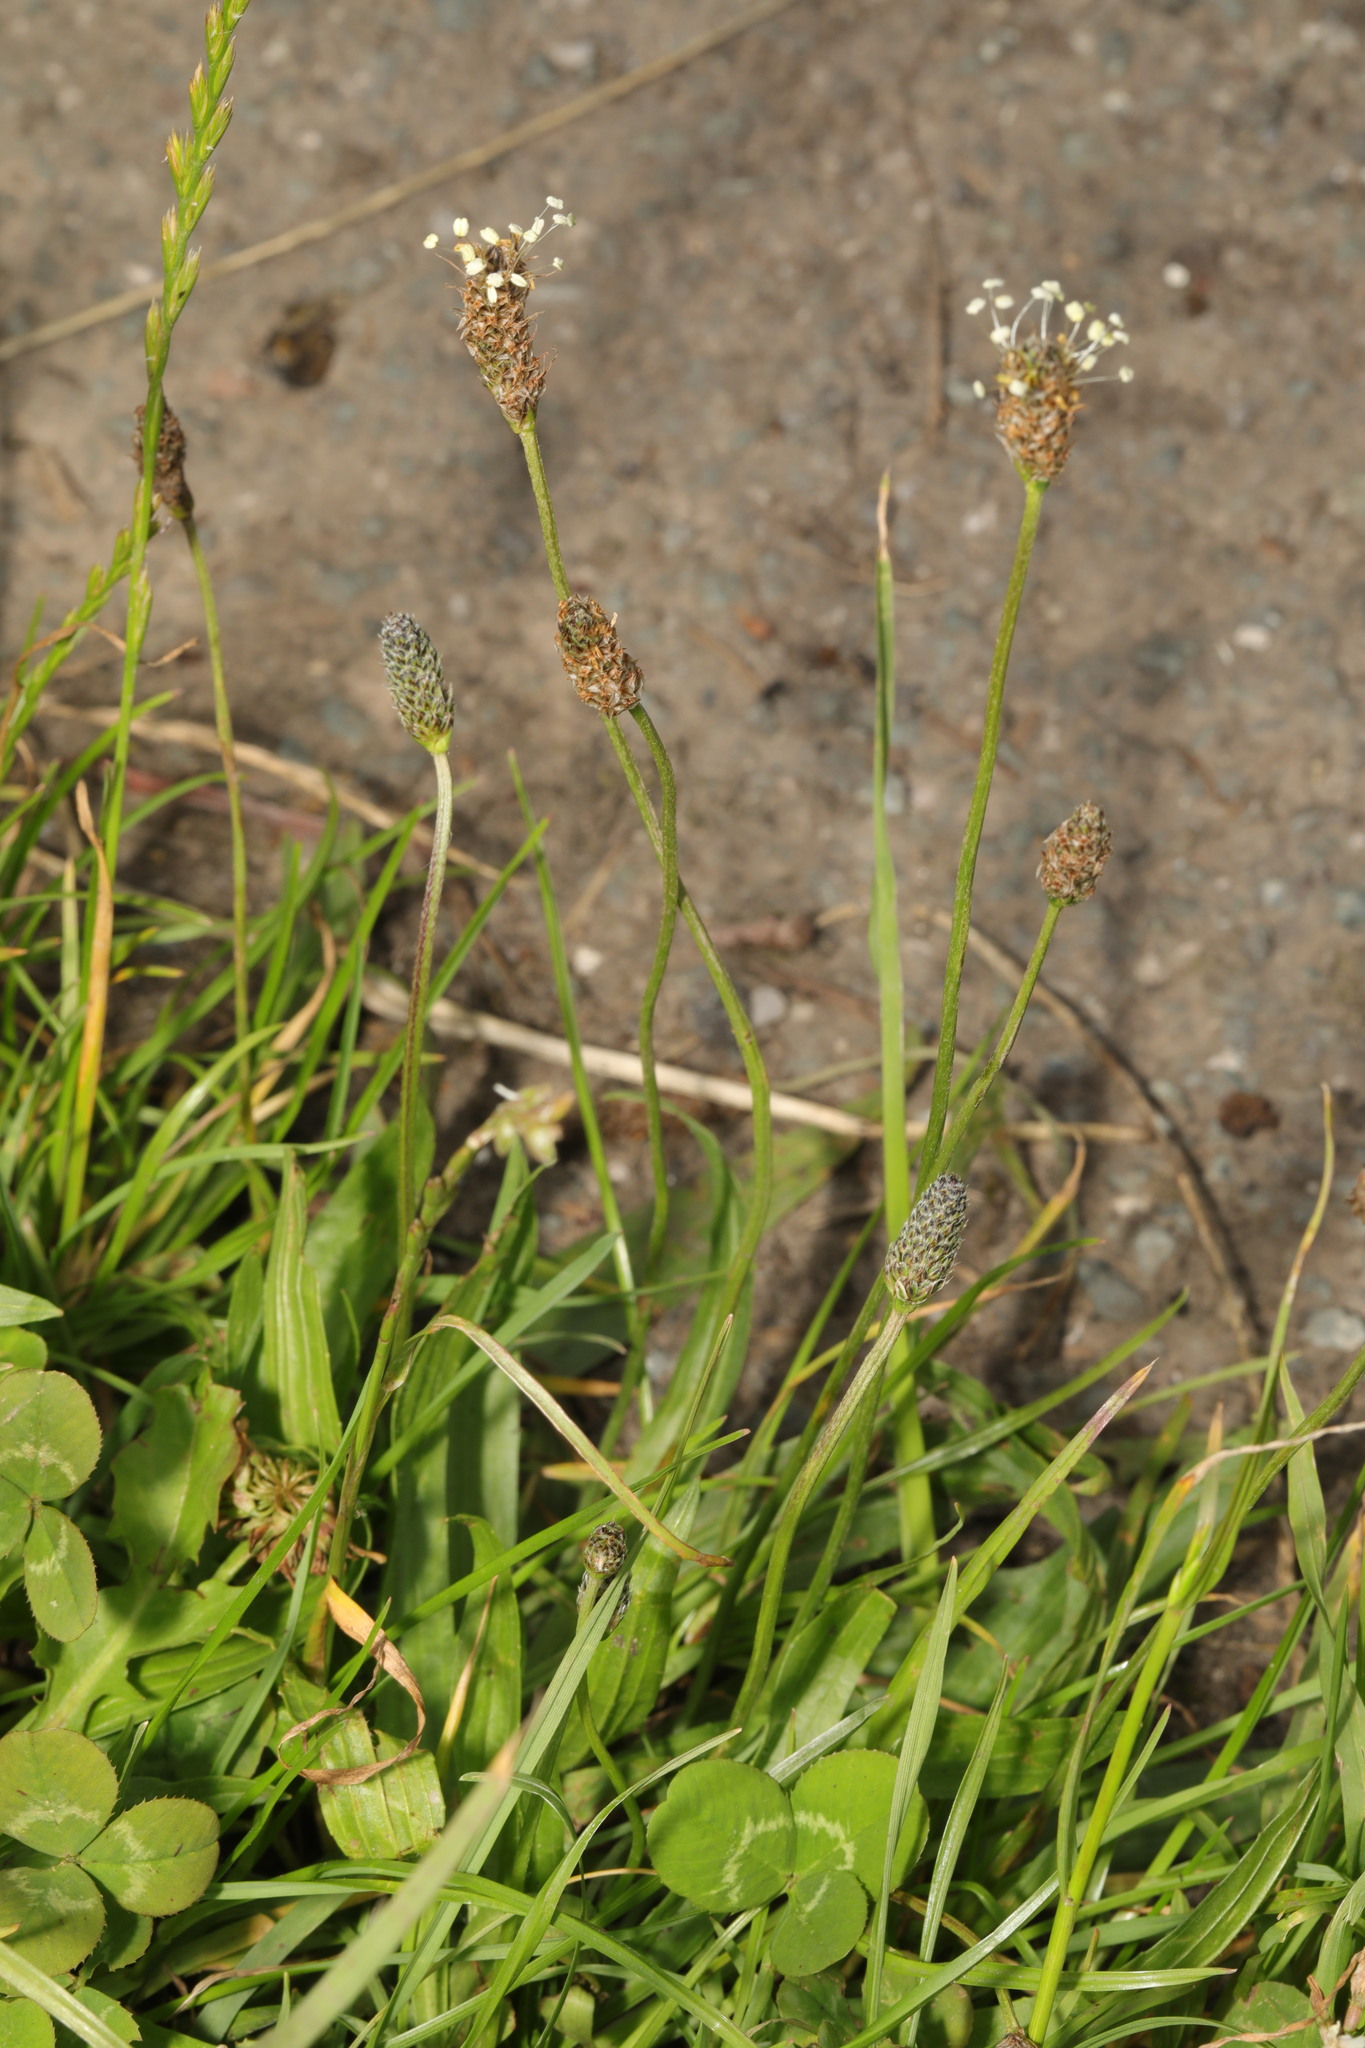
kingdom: Plantae
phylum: Tracheophyta
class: Magnoliopsida
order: Lamiales
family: Plantaginaceae
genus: Plantago
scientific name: Plantago lanceolata
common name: Ribwort plantain
